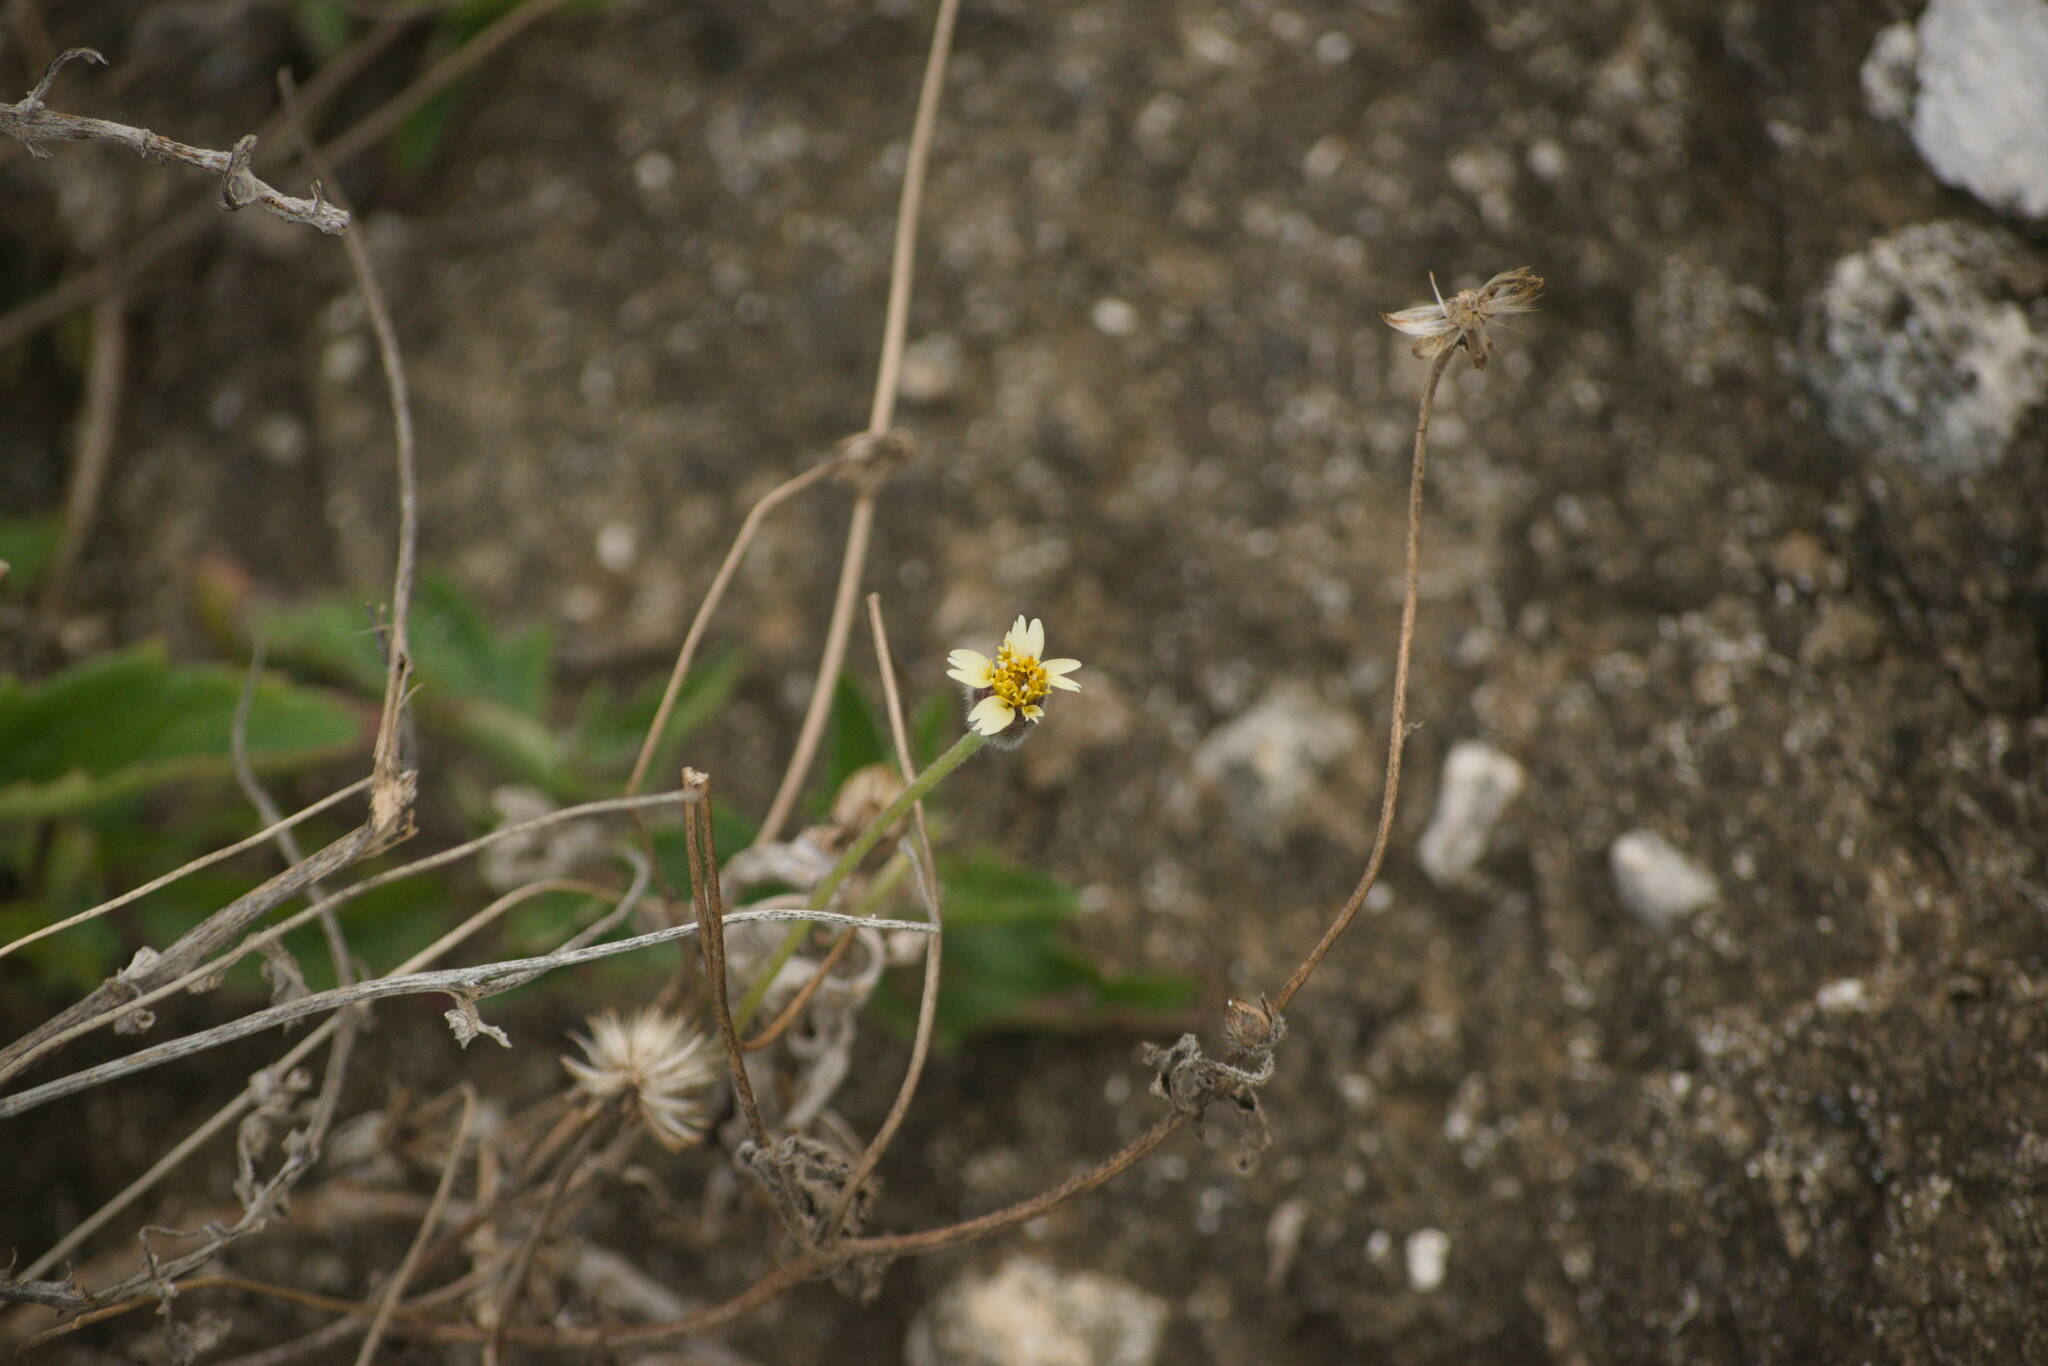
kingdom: Plantae
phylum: Tracheophyta
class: Magnoliopsida
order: Asterales
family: Asteraceae
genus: Tridax
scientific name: Tridax procumbens
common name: Coatbuttons
